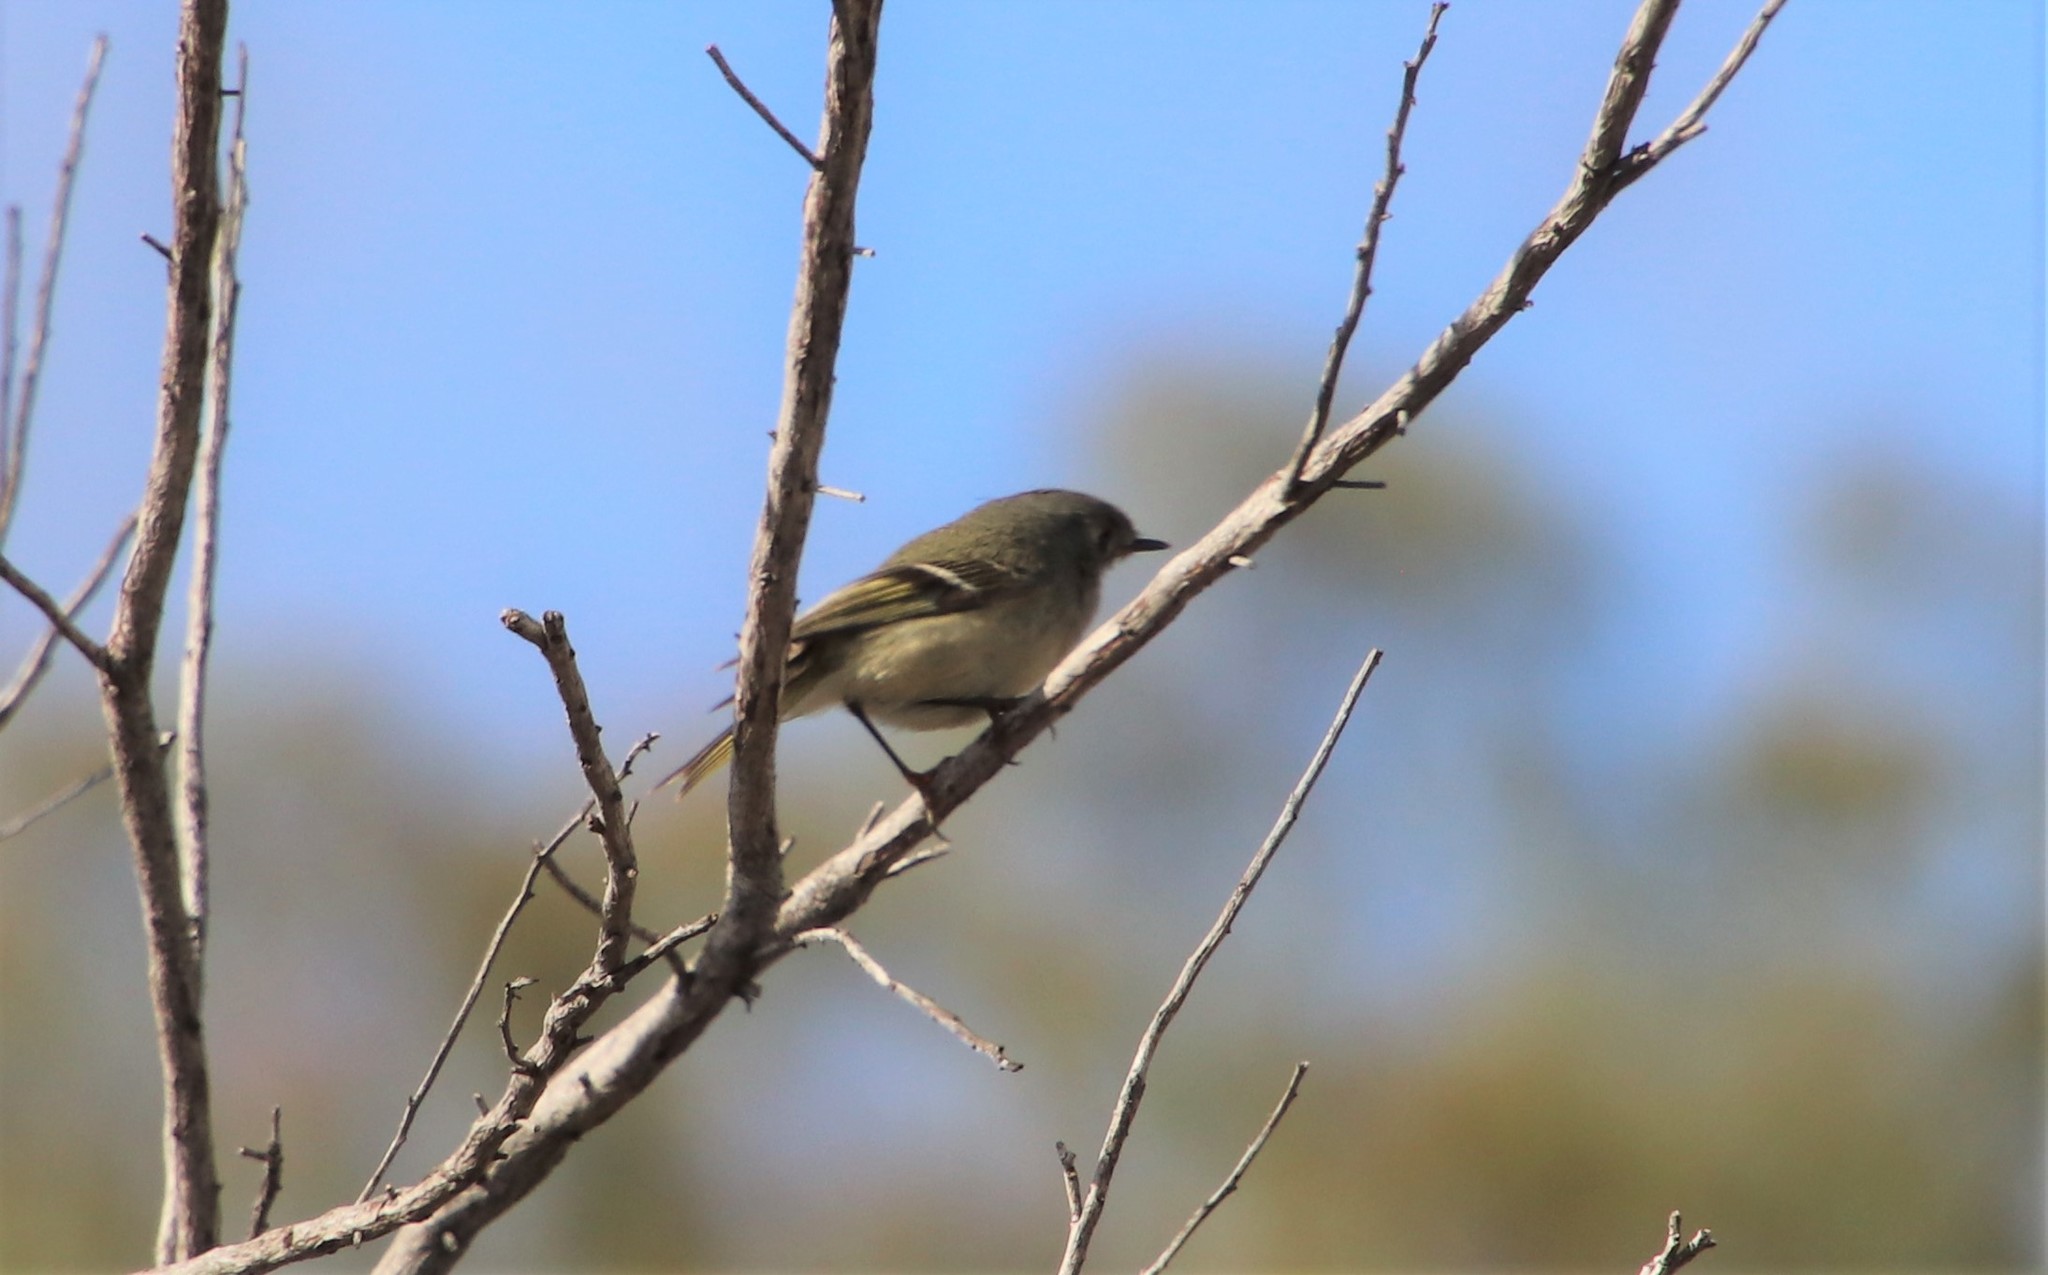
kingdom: Animalia
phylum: Chordata
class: Aves
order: Passeriformes
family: Regulidae
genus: Regulus
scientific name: Regulus calendula
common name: Ruby-crowned kinglet
